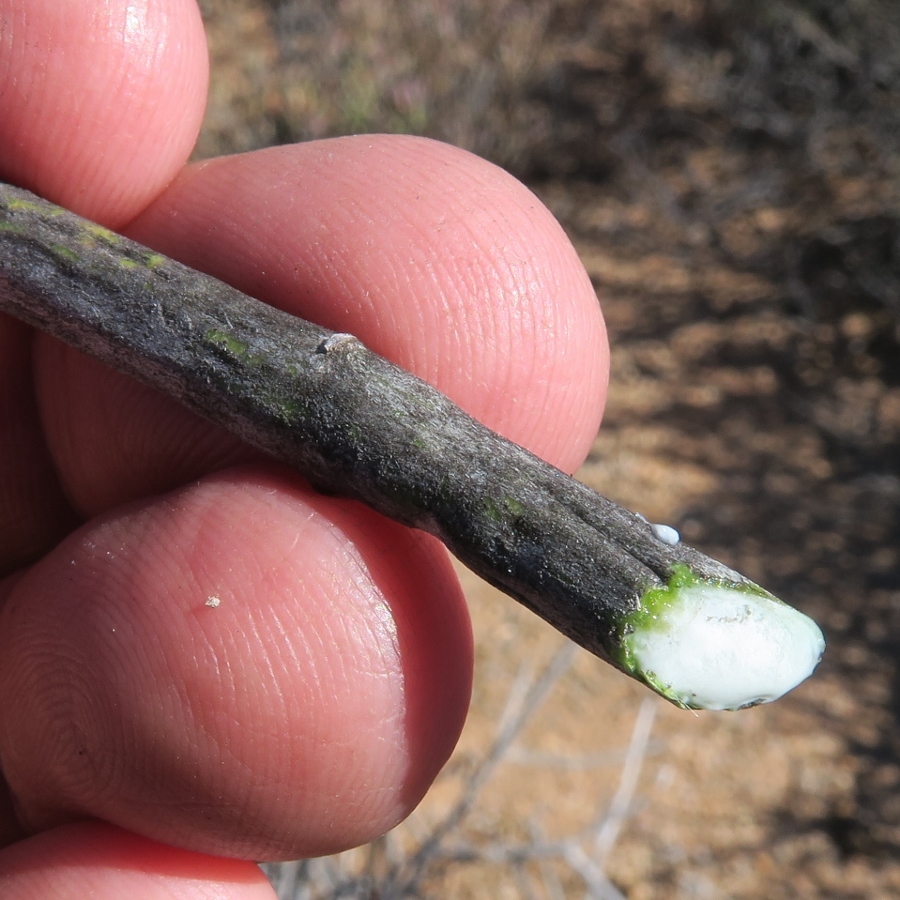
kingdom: Plantae
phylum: Tracheophyta
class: Magnoliopsida
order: Gentianales
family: Apocynaceae
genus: Cynanchum
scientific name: Cynanchum viminale
